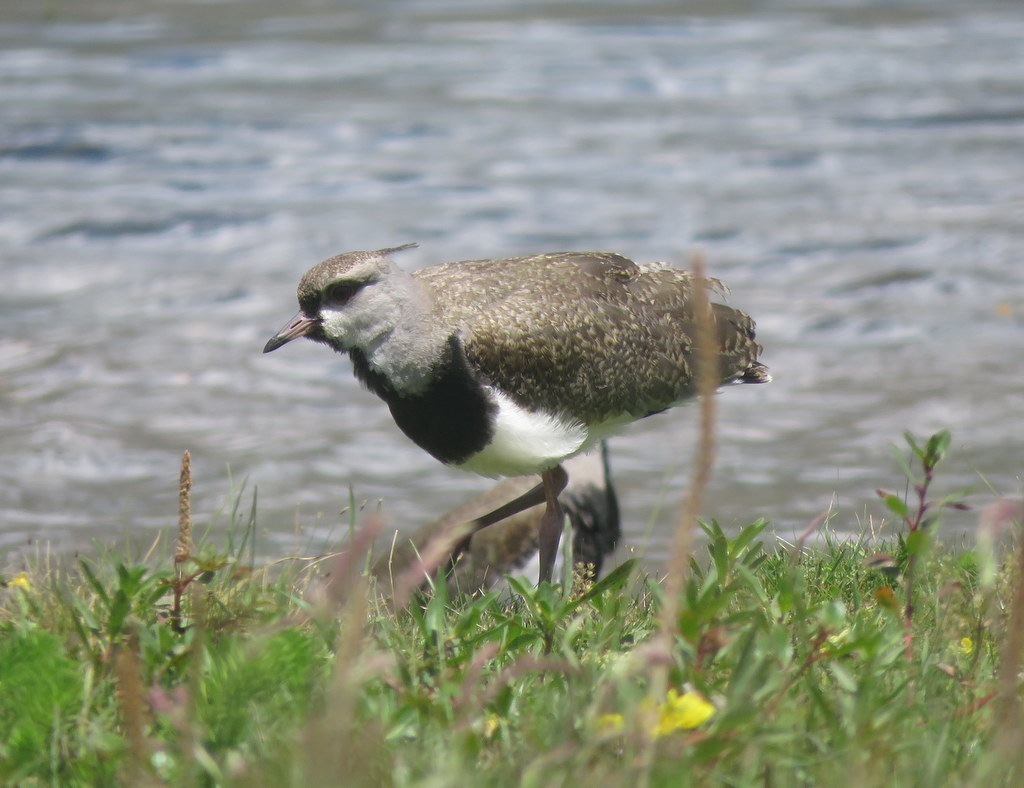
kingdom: Animalia
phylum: Chordata
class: Aves
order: Charadriiformes
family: Charadriidae
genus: Vanellus
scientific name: Vanellus chilensis
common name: Southern lapwing
